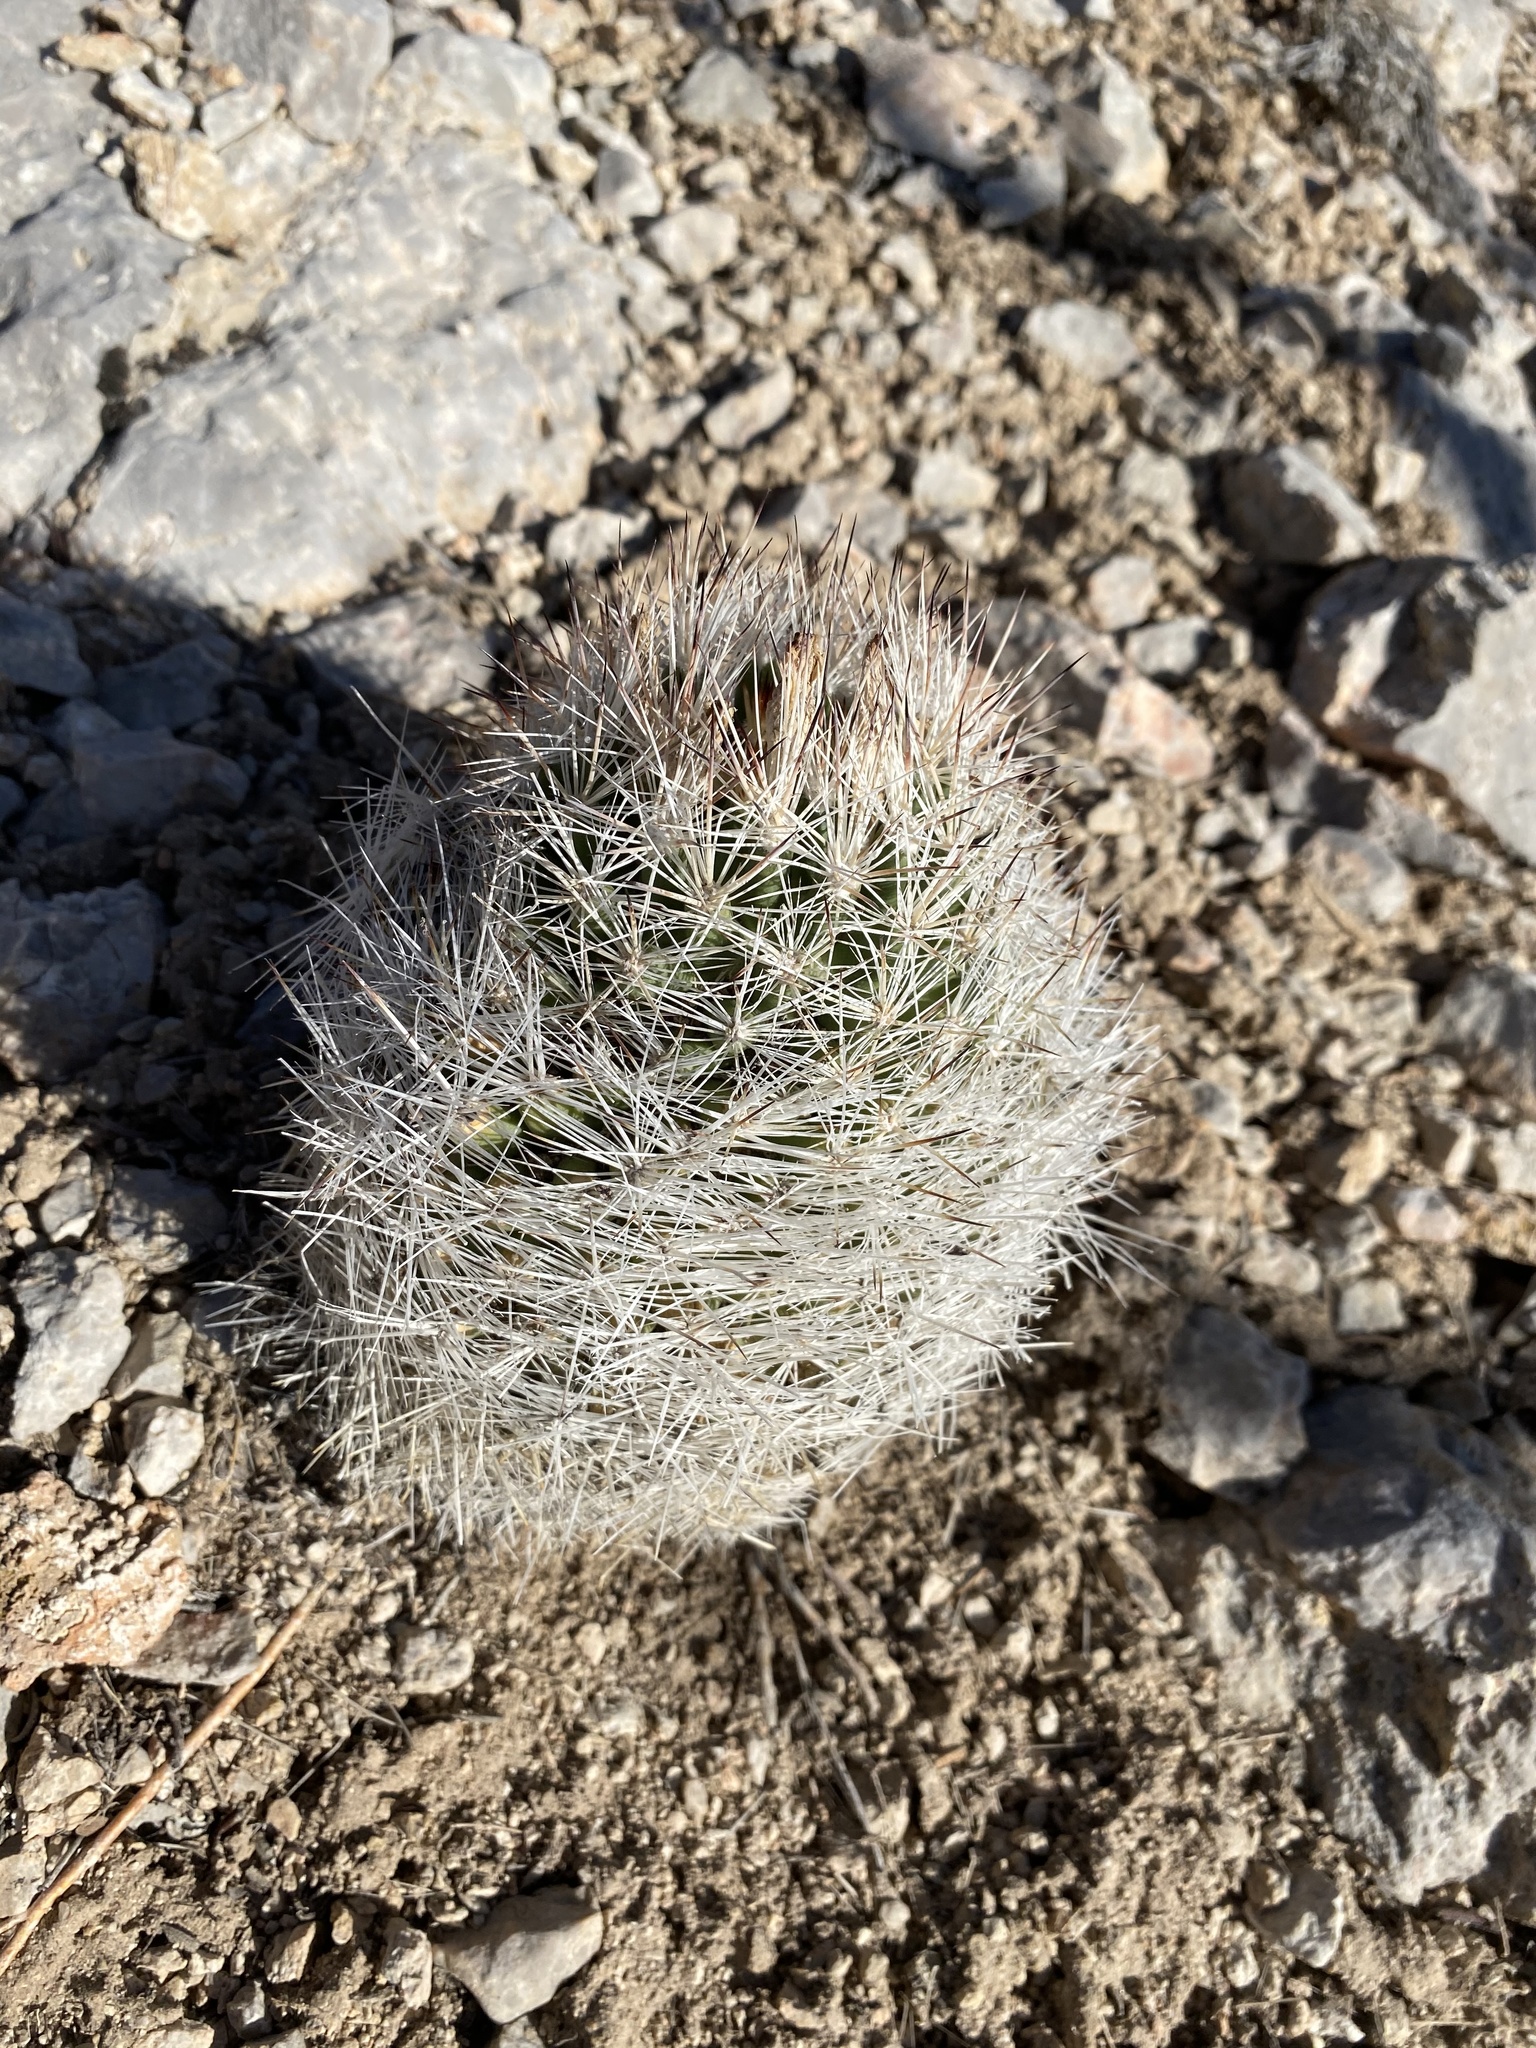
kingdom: Plantae
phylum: Tracheophyta
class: Magnoliopsida
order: Caryophyllales
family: Cactaceae
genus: Pelecyphora
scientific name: Pelecyphora vivipara
